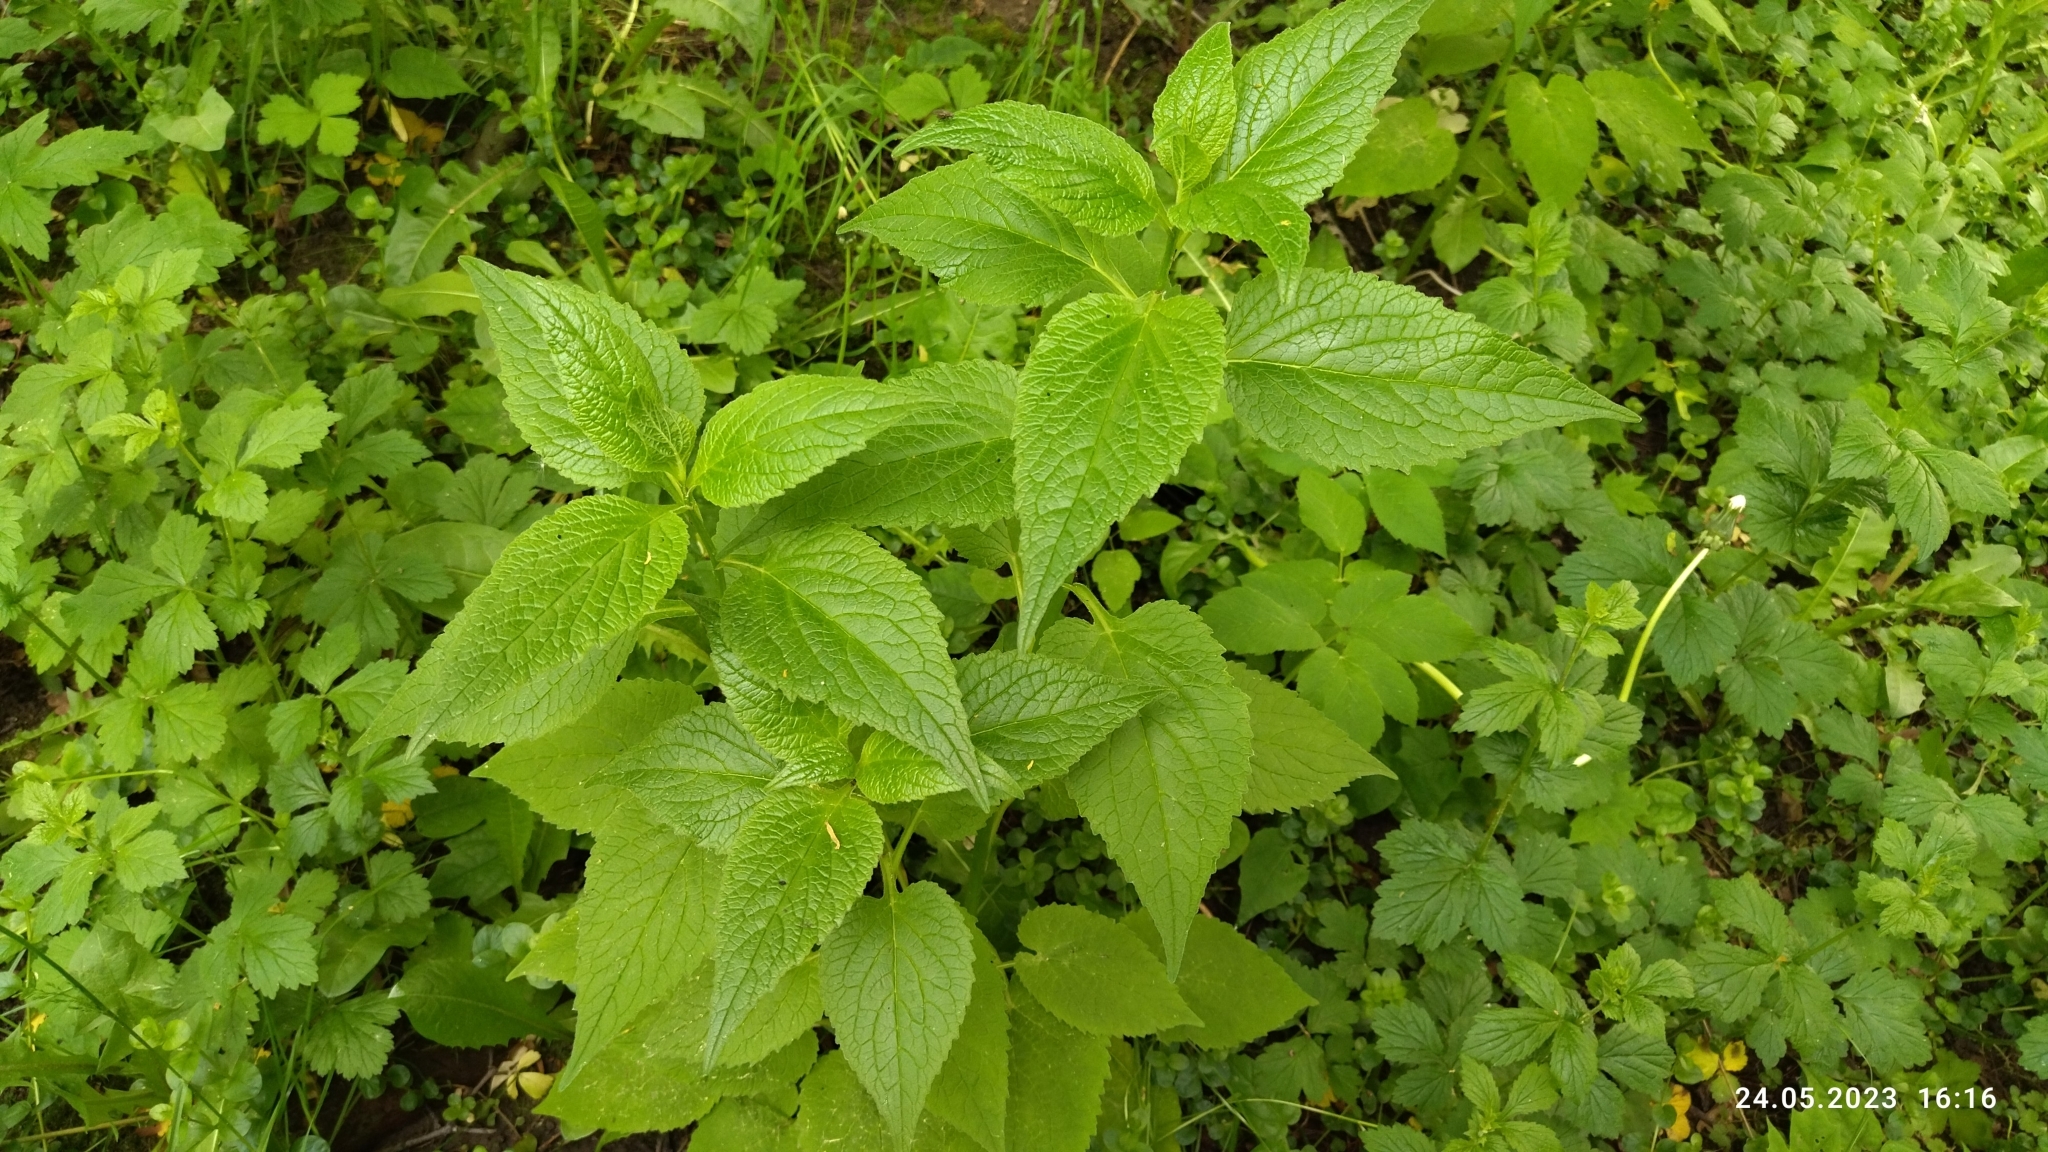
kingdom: Plantae
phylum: Tracheophyta
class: Magnoliopsida
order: Asterales
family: Campanulaceae
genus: Campanula
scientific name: Campanula latifolia
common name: Giant bellflower
